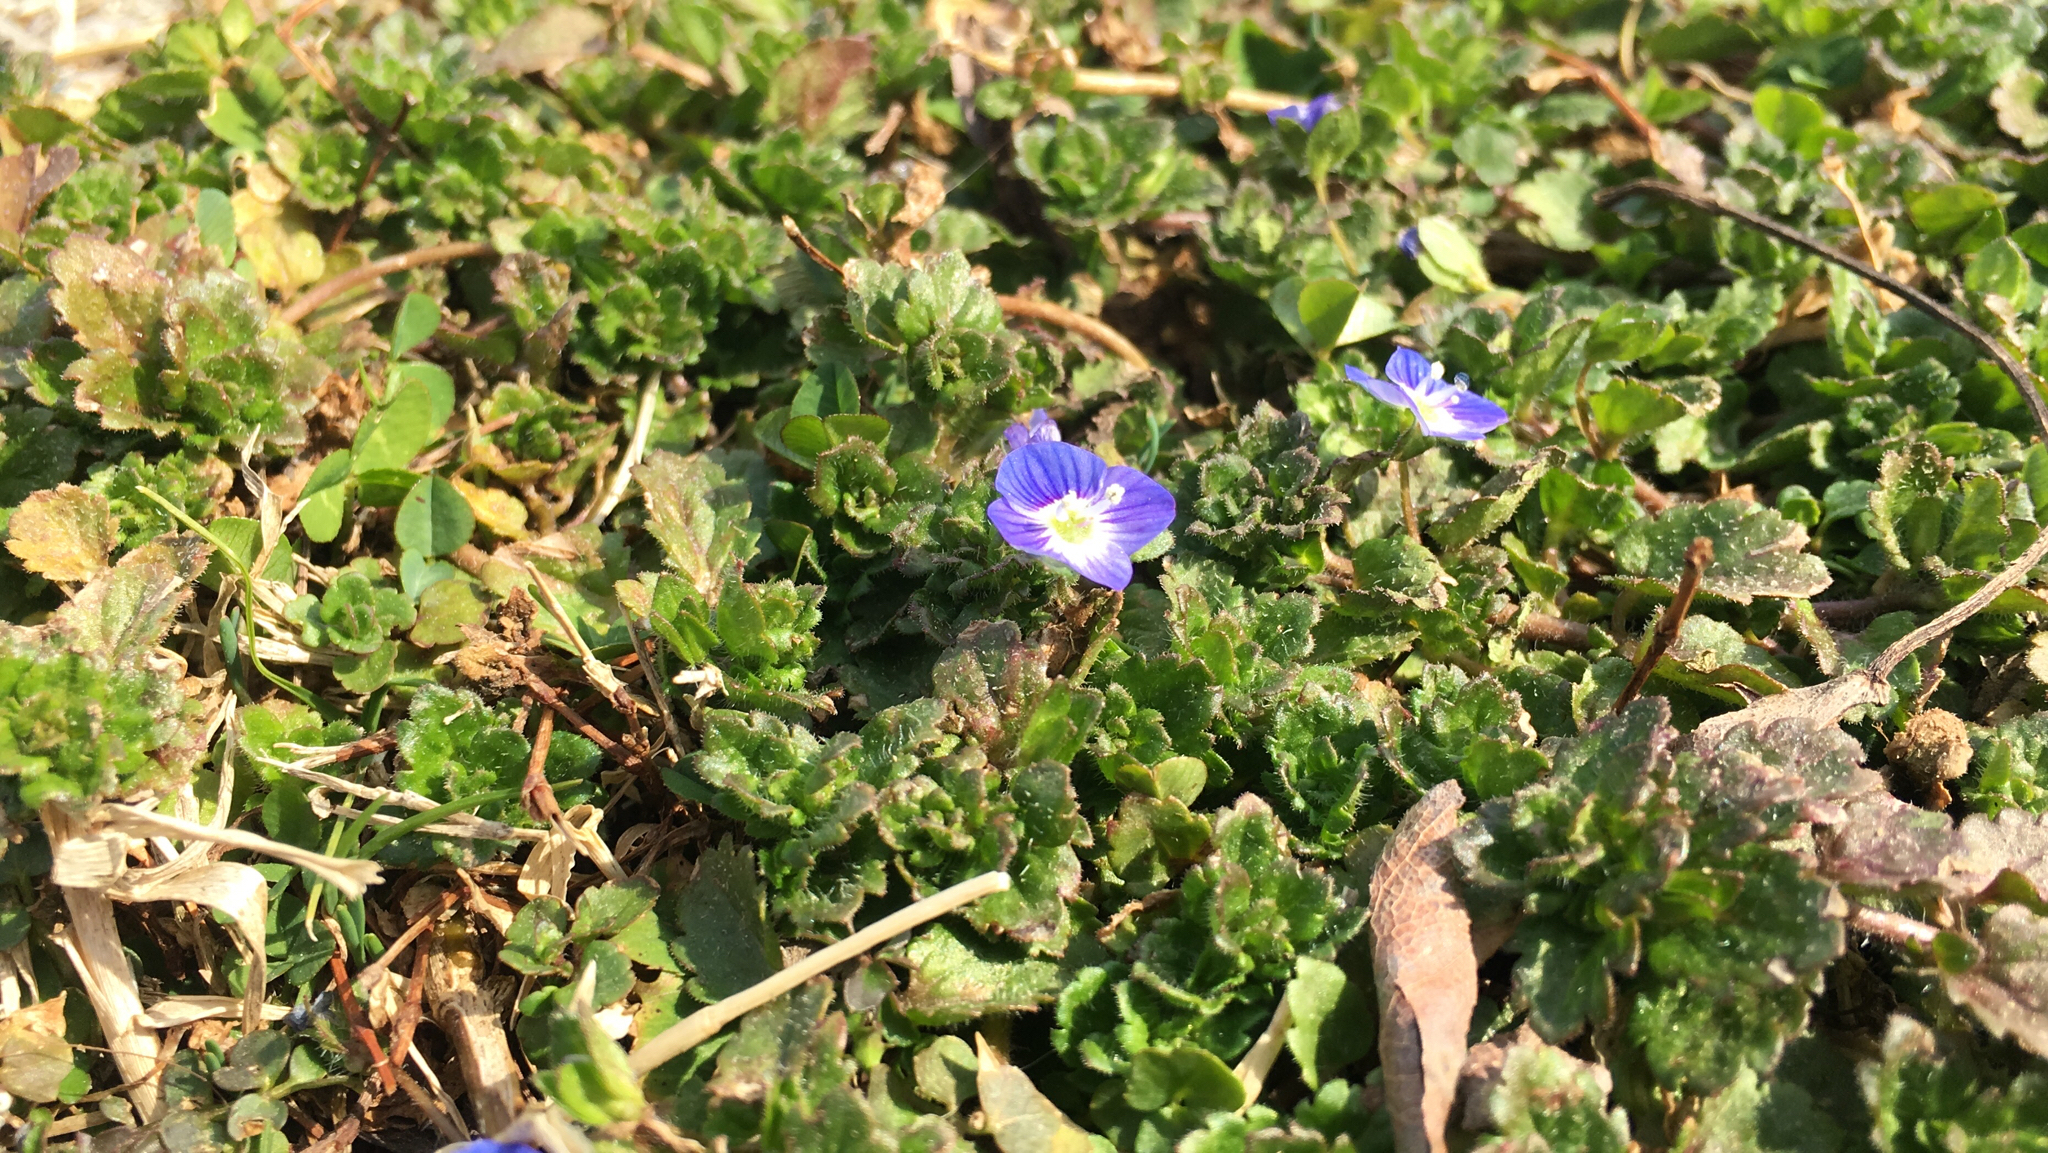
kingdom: Plantae
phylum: Tracheophyta
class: Magnoliopsida
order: Lamiales
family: Plantaginaceae
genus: Veronica
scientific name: Veronica persica
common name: Common field-speedwell
